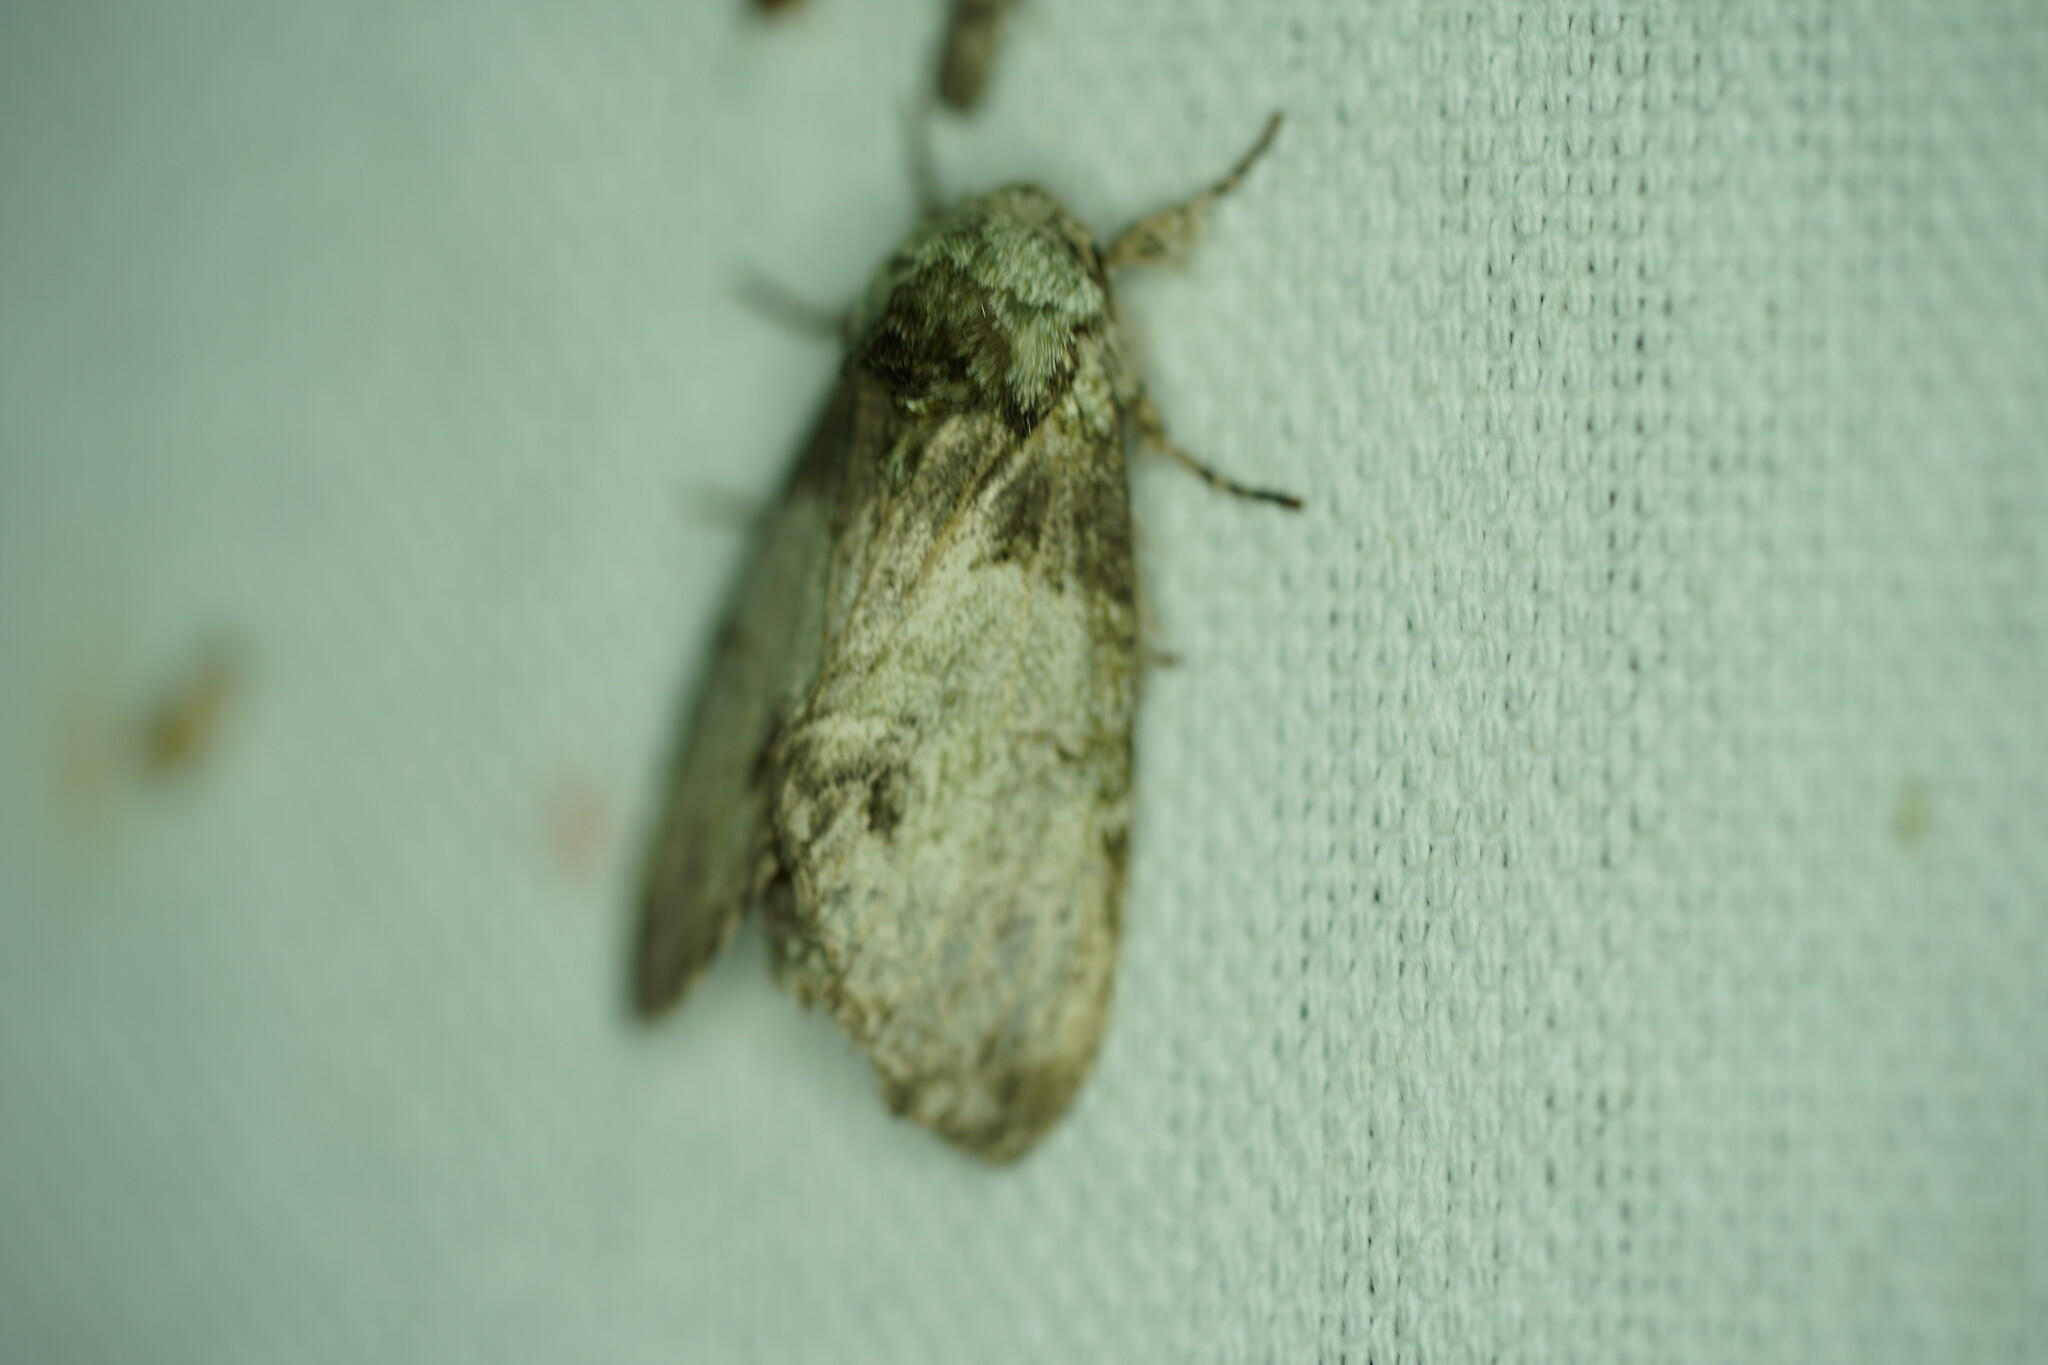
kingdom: Animalia
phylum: Arthropoda
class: Insecta
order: Lepidoptera
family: Notodontidae
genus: Macrurocampa
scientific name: Macrurocampa marthesia
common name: Mottled prominent
